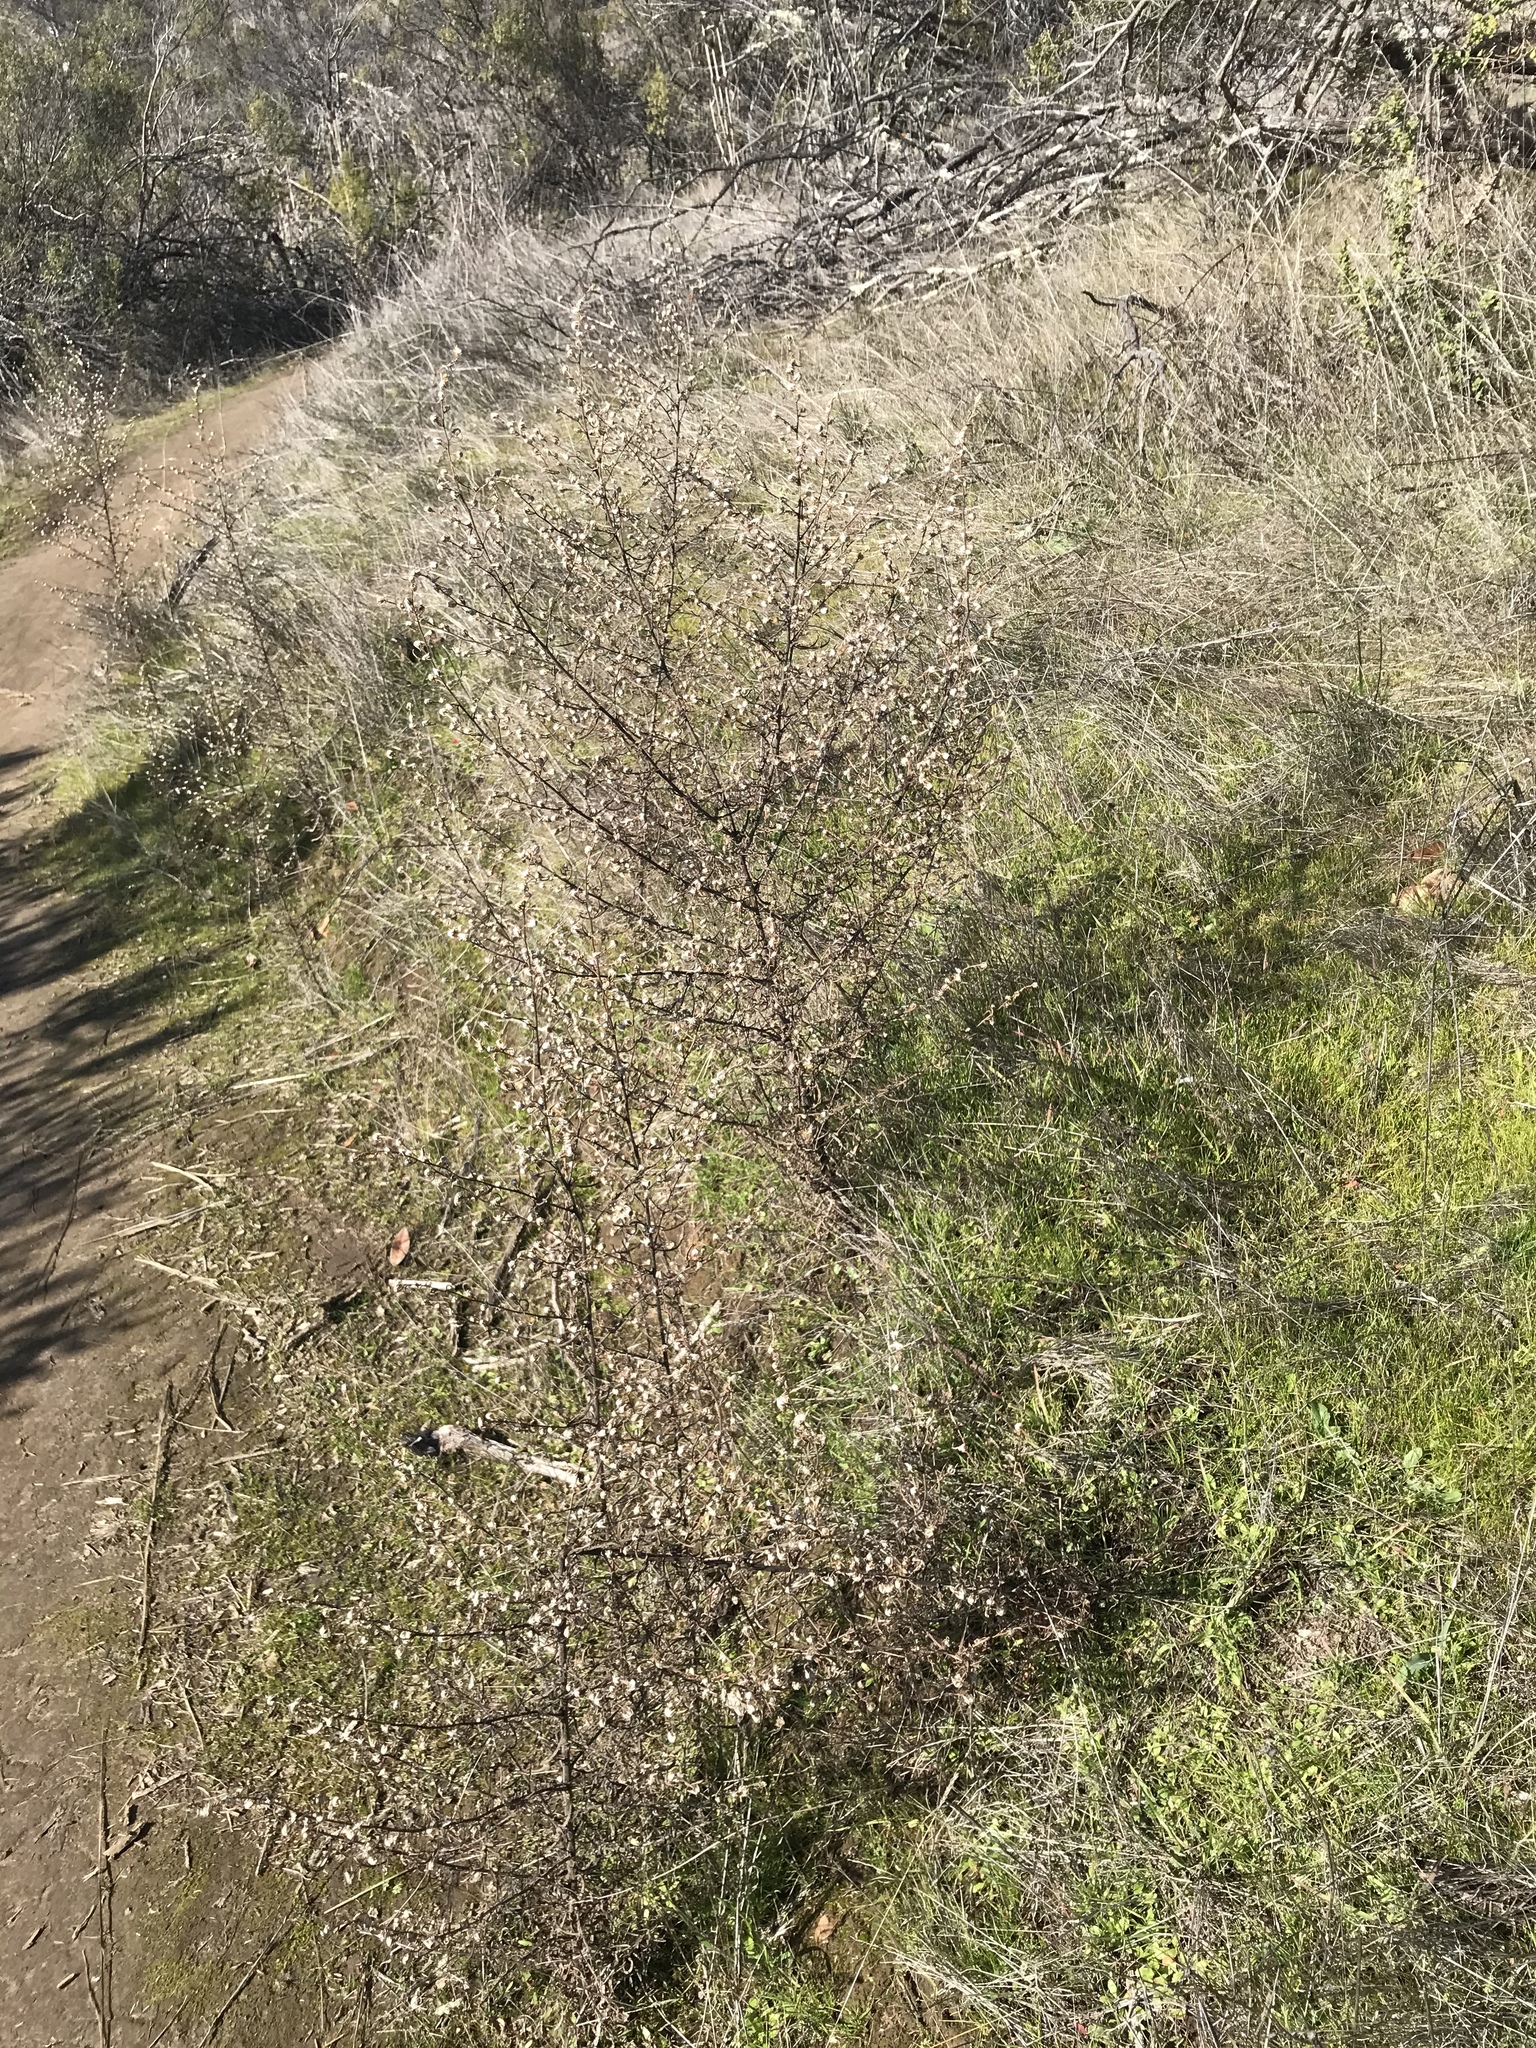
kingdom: Plantae
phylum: Tracheophyta
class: Magnoliopsida
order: Asterales
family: Asteraceae
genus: Dittrichia
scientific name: Dittrichia graveolens
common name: Stinking fleabane
